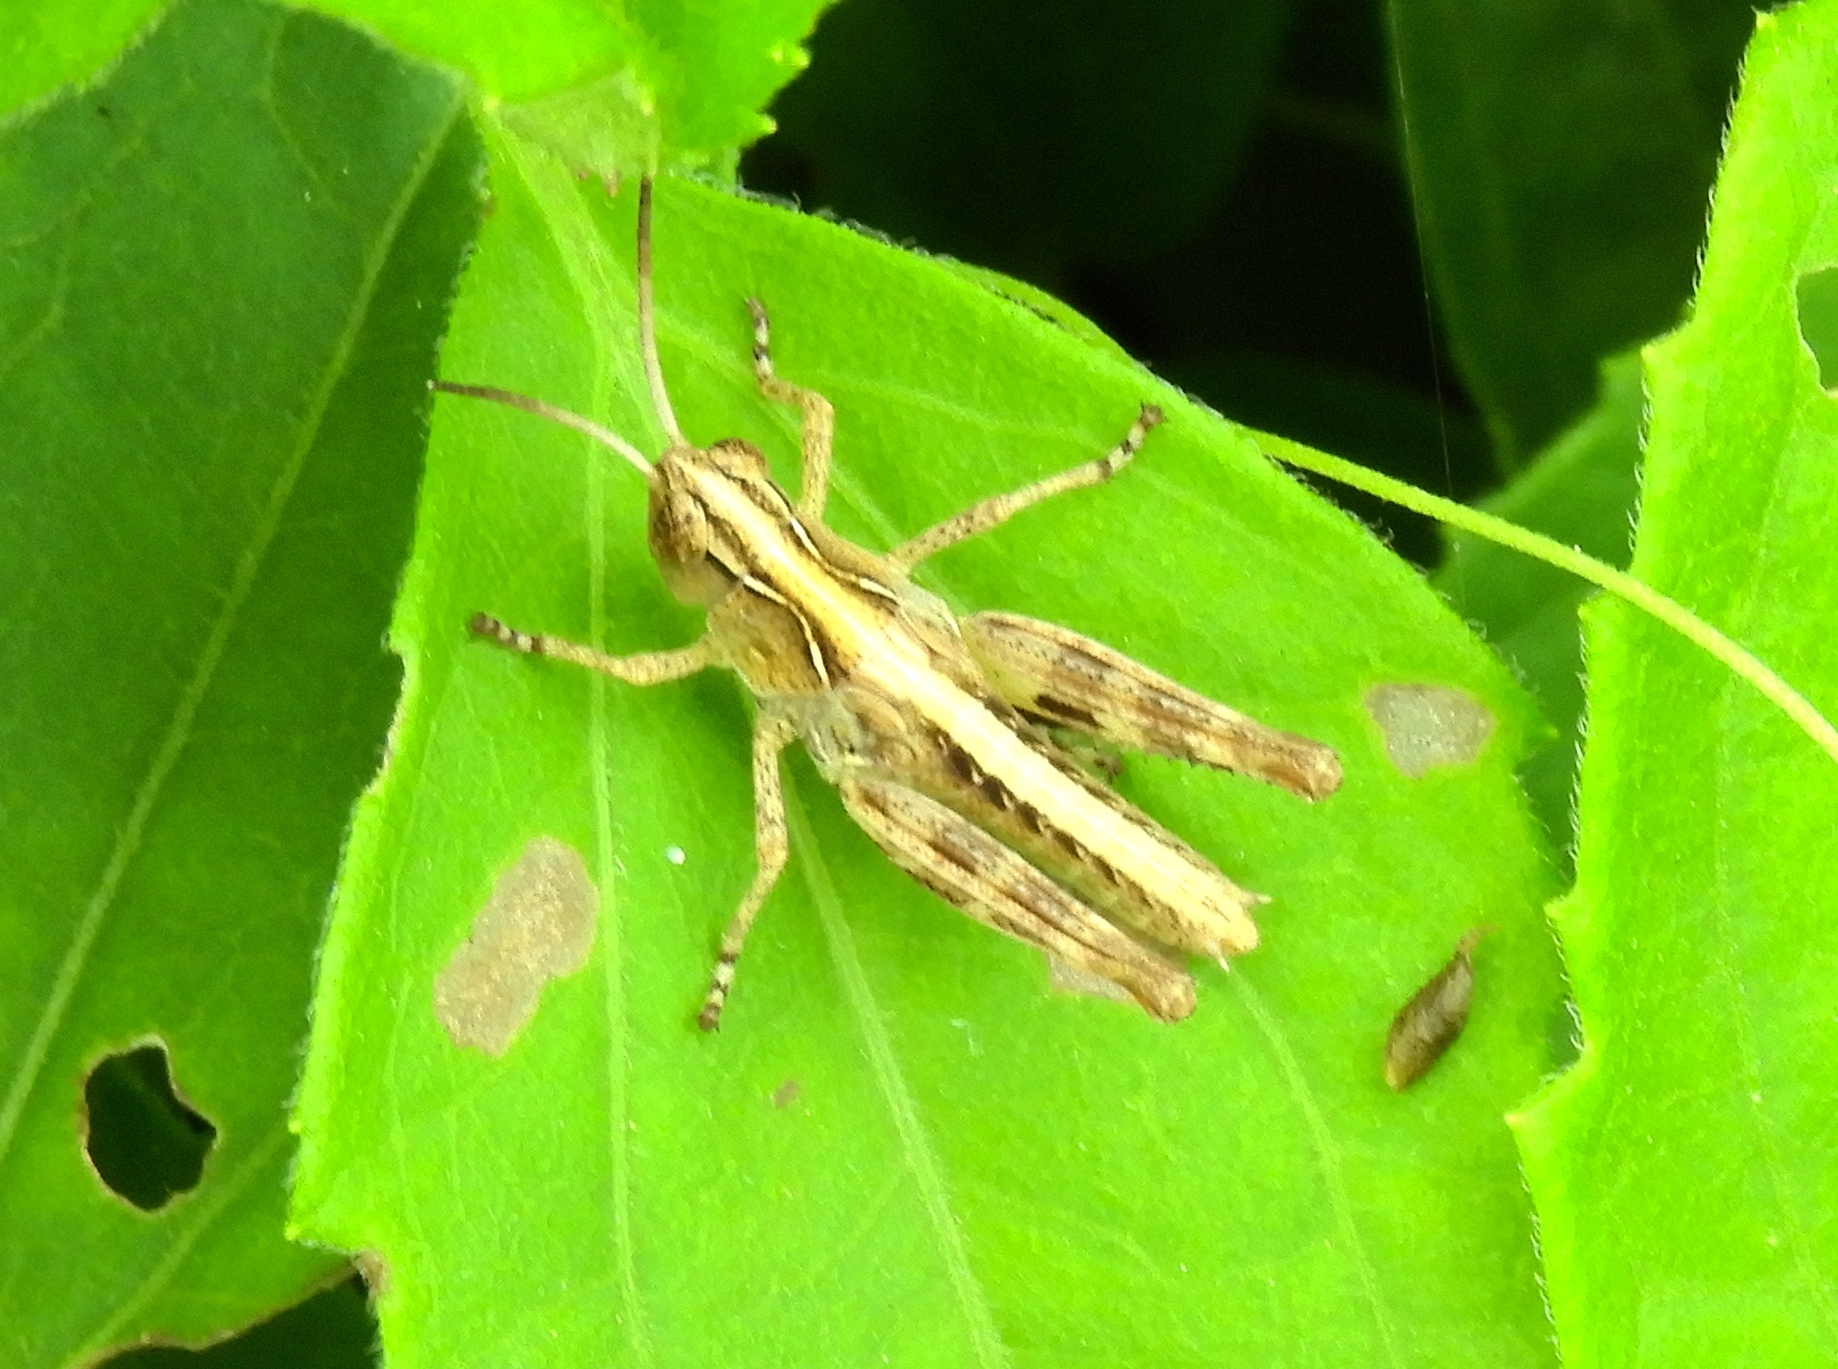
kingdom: Animalia
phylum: Arthropoda
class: Insecta
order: Orthoptera
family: Acrididae
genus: Boopedon
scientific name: Boopedon flaviventris
